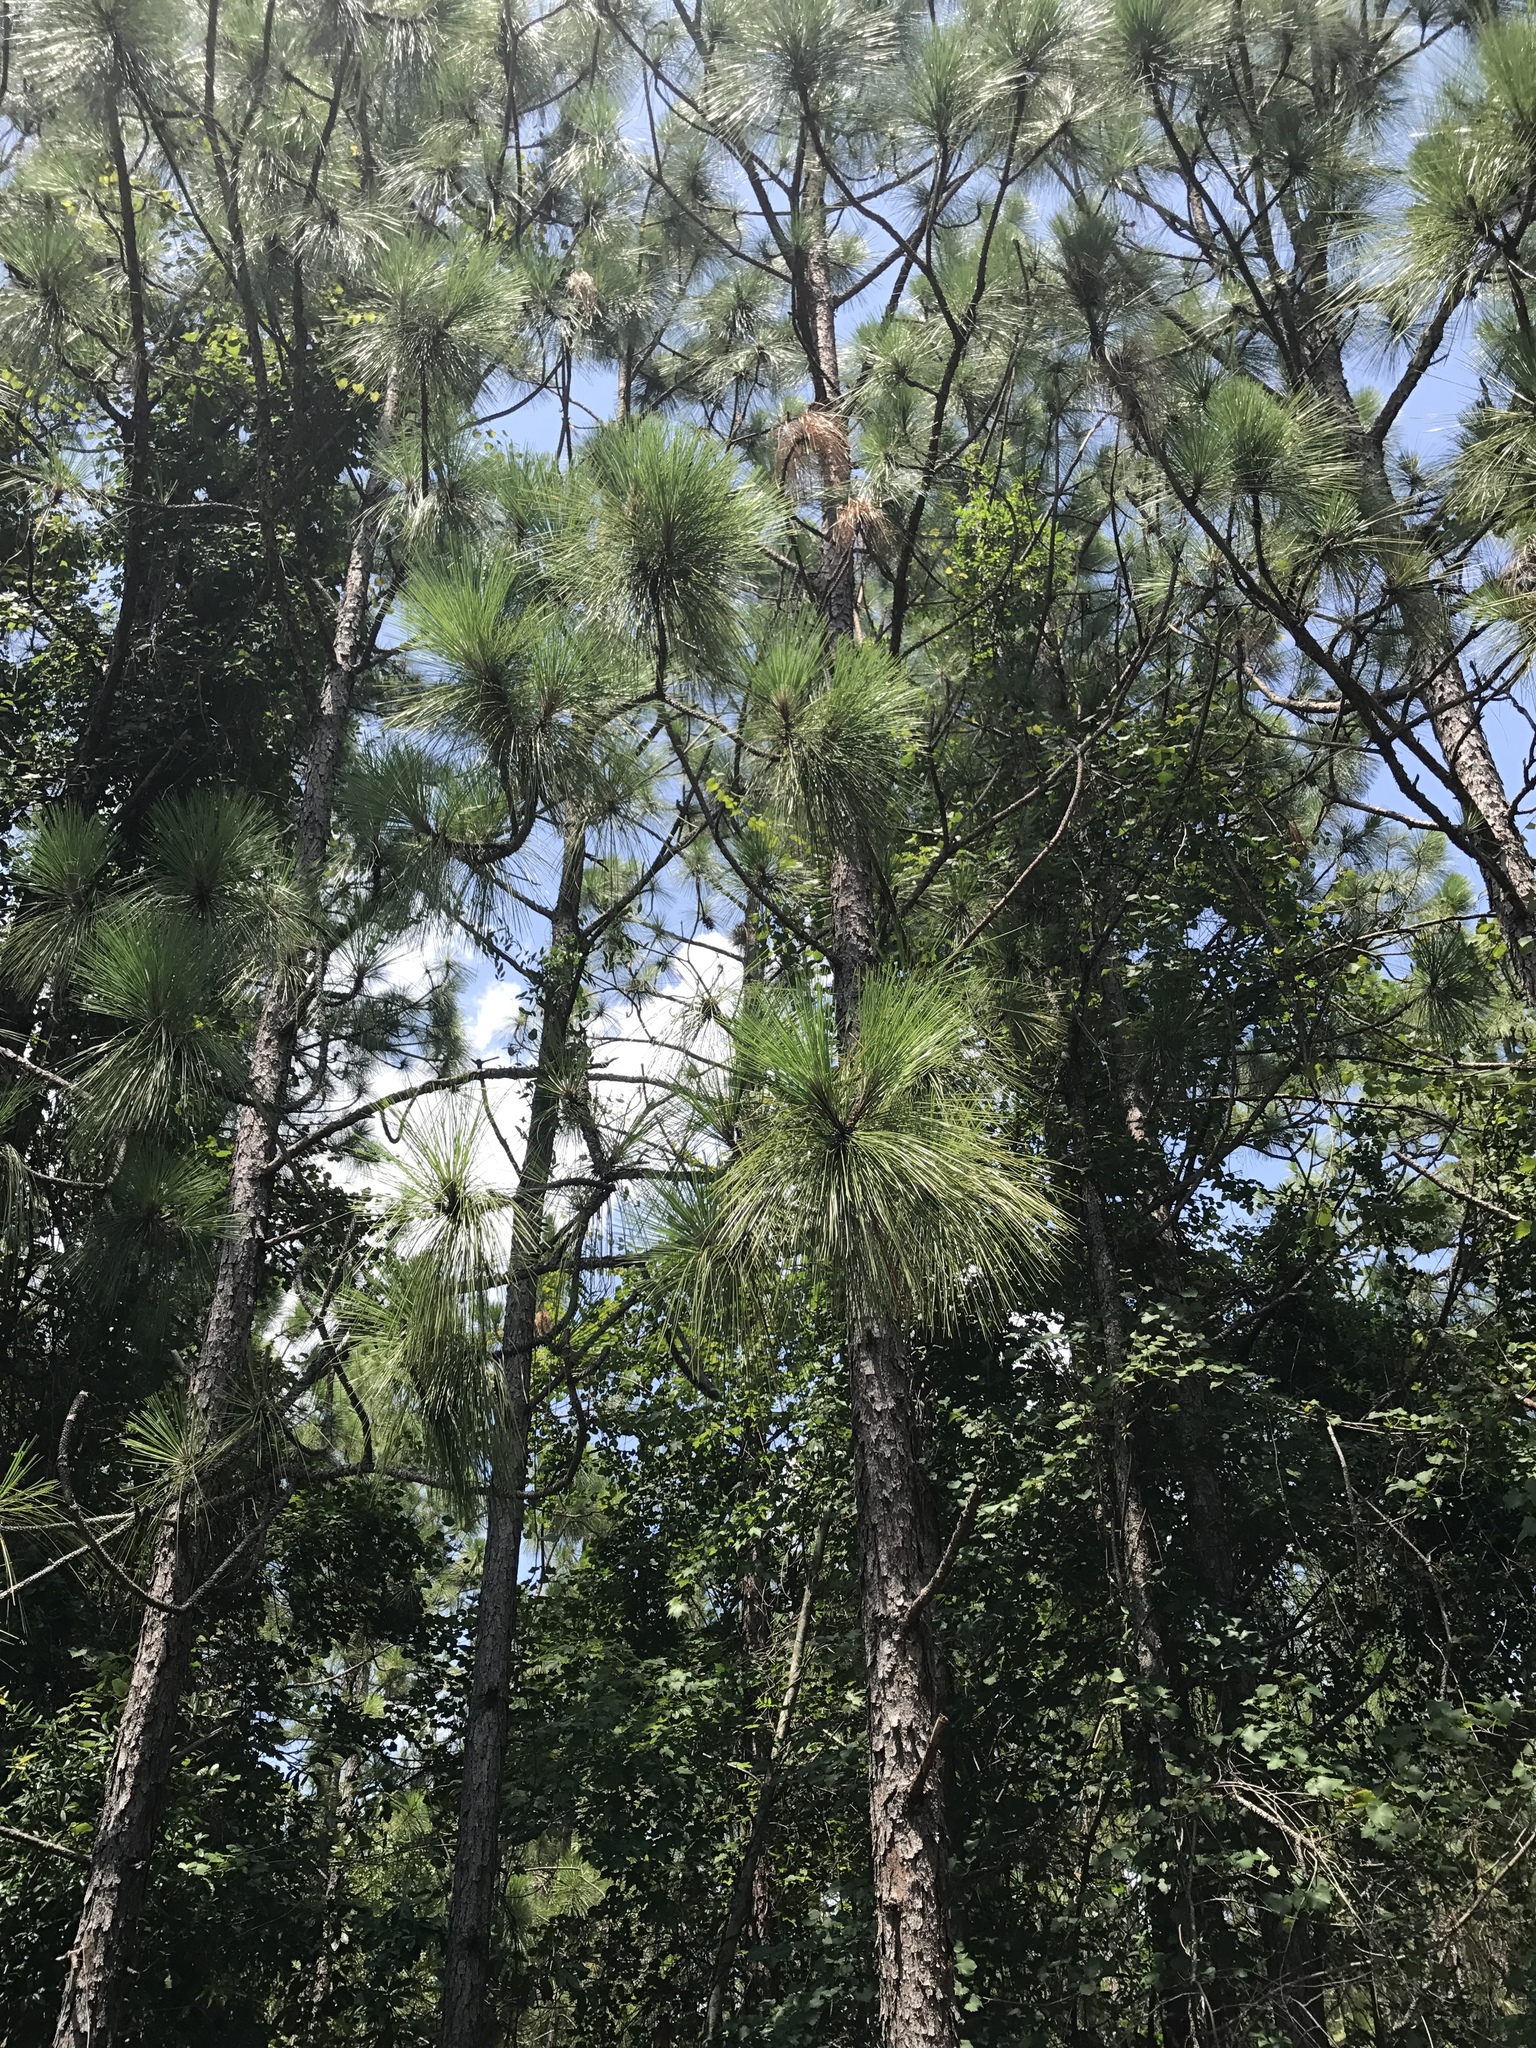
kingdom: Plantae
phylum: Tracheophyta
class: Pinopsida
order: Pinales
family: Pinaceae
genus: Pinus
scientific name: Pinus palustris
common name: Longleaf pine
